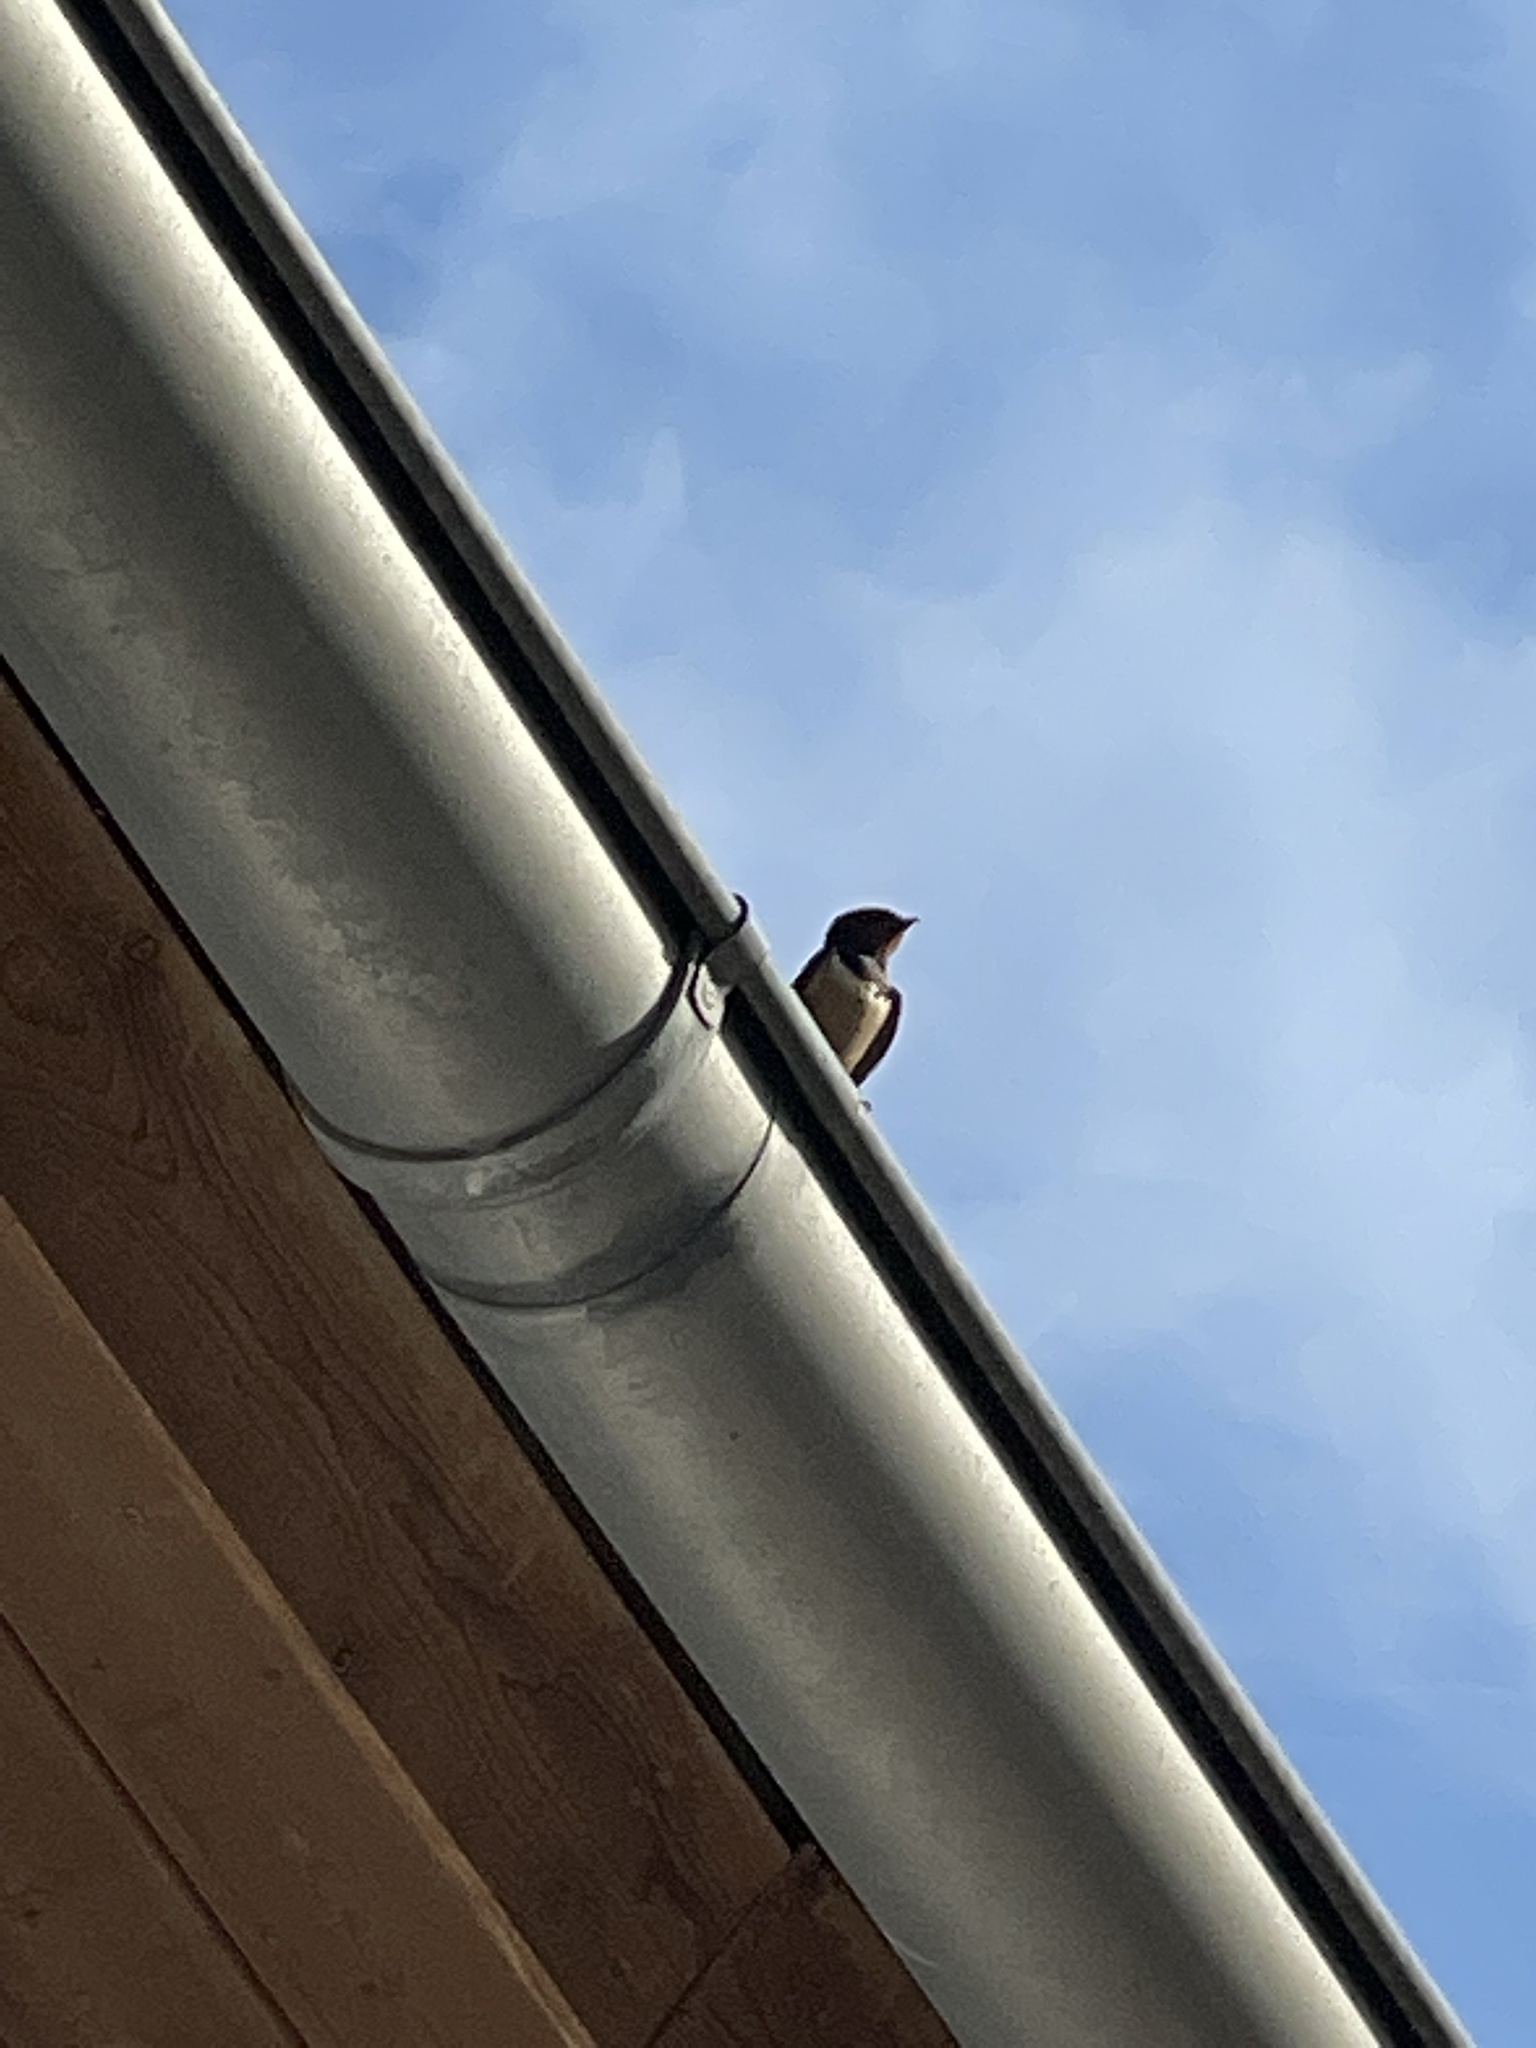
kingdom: Animalia
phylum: Chordata
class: Aves
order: Passeriformes
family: Hirundinidae
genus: Hirundo
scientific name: Hirundo rustica
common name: Barn swallow
